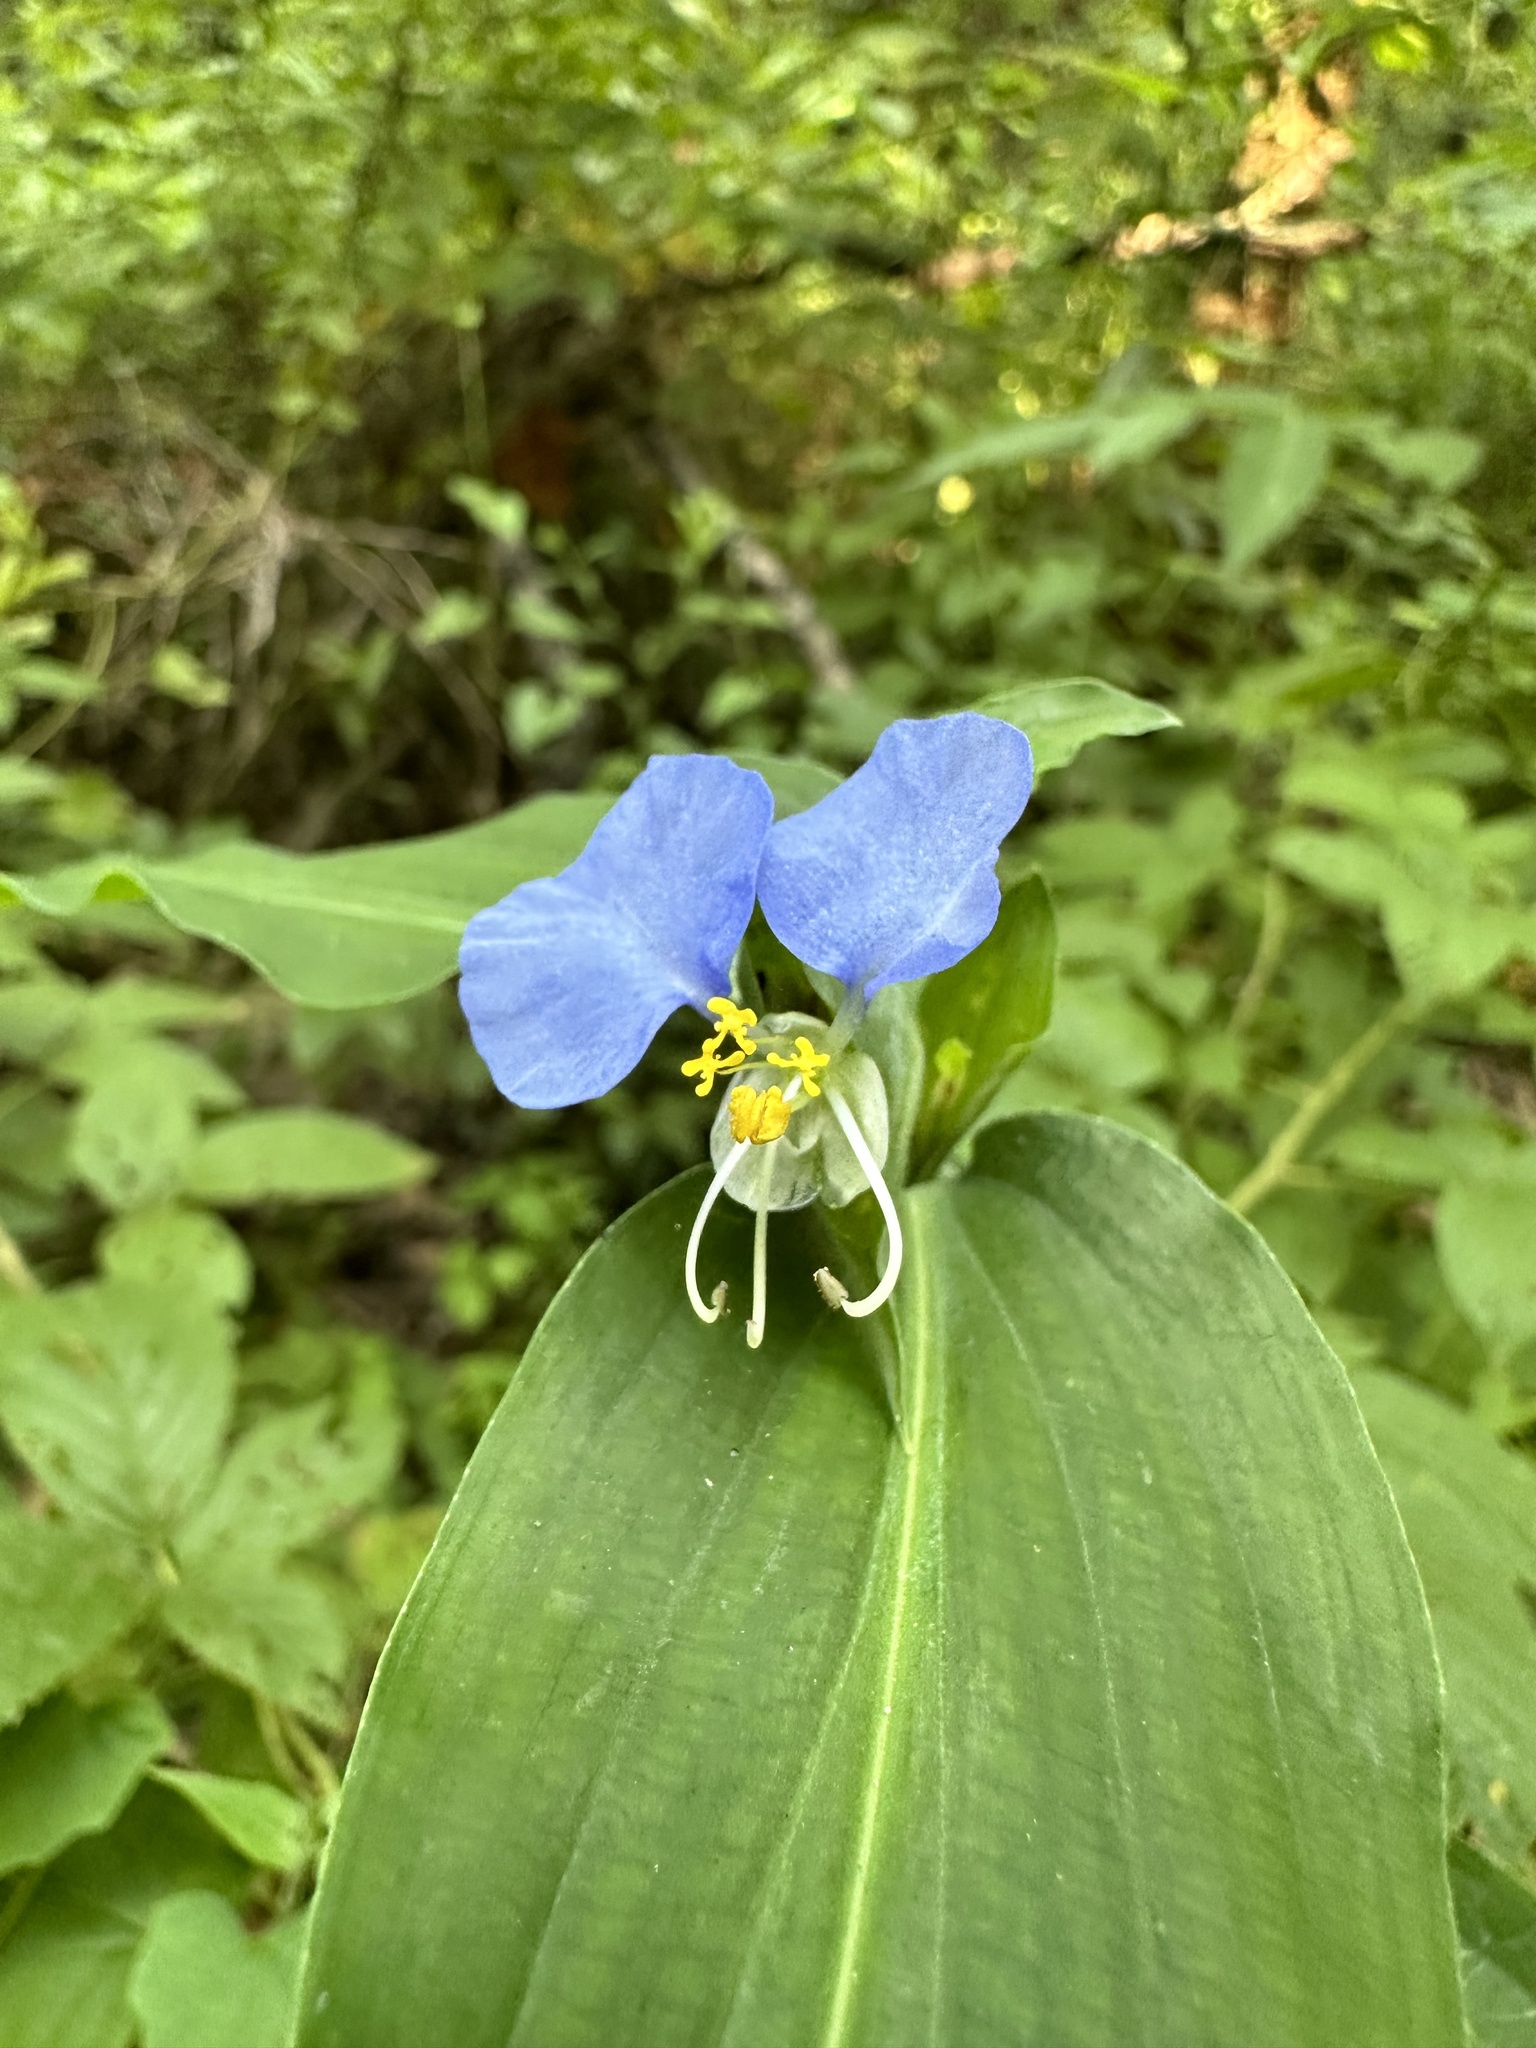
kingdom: Plantae
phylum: Tracheophyta
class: Liliopsida
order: Commelinales
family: Commelinaceae
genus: Commelina
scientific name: Commelina erecta
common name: Blousel blommetjie
